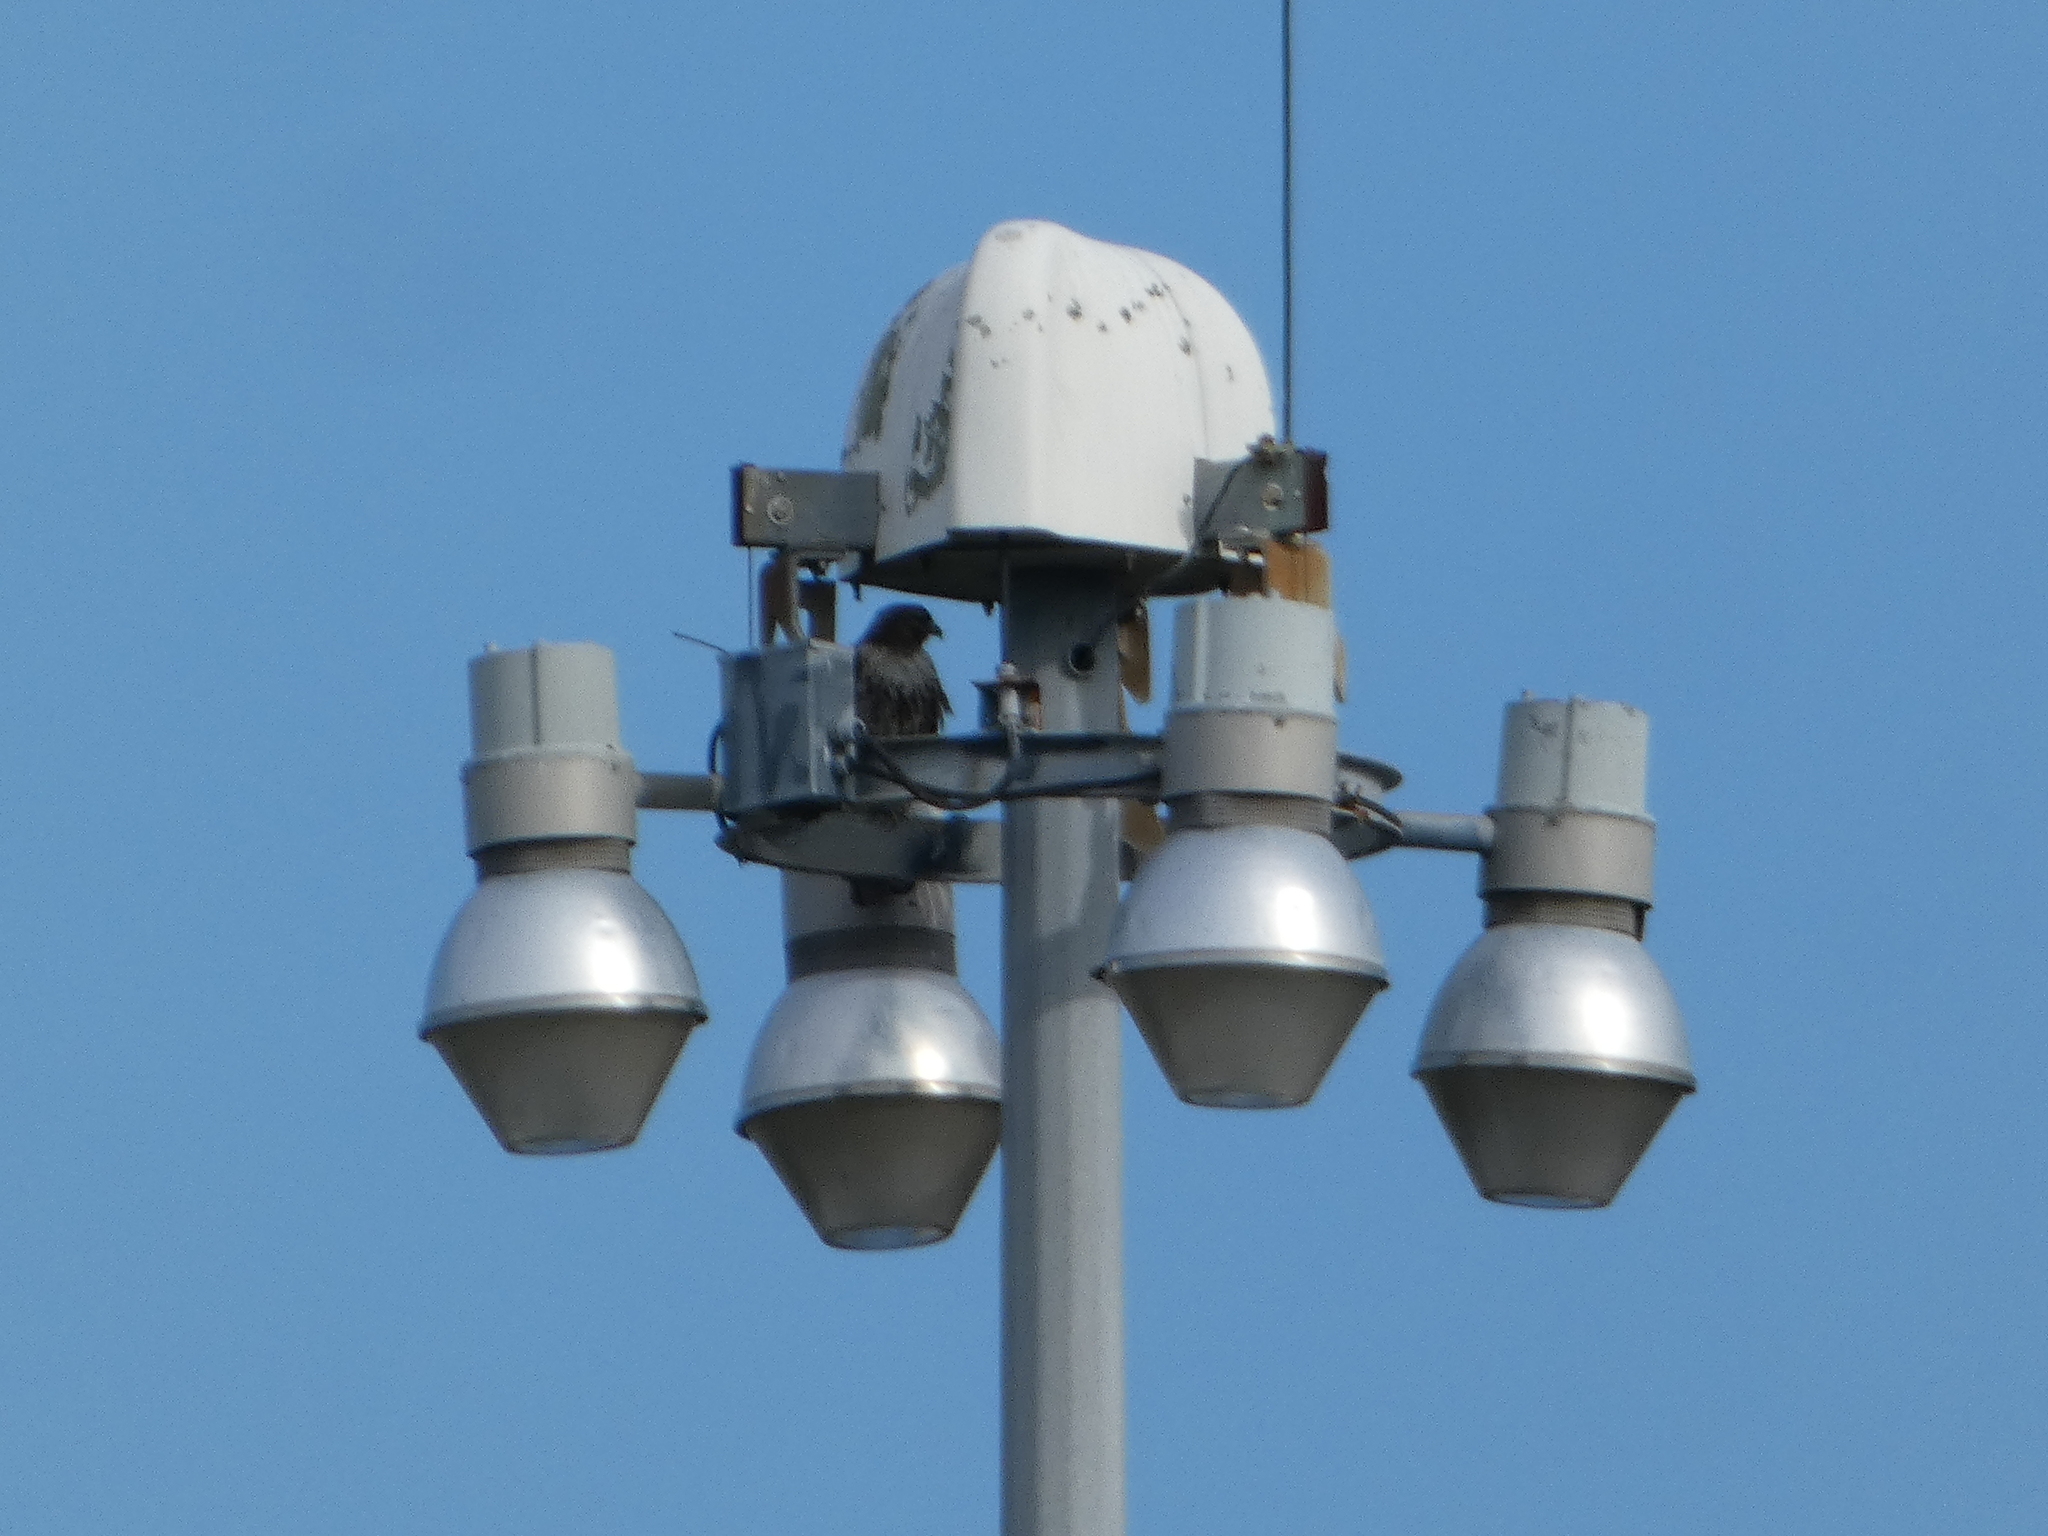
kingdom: Animalia
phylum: Chordata
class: Aves
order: Accipitriformes
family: Accipitridae
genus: Buteo
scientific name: Buteo jamaicensis
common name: Red-tailed hawk
